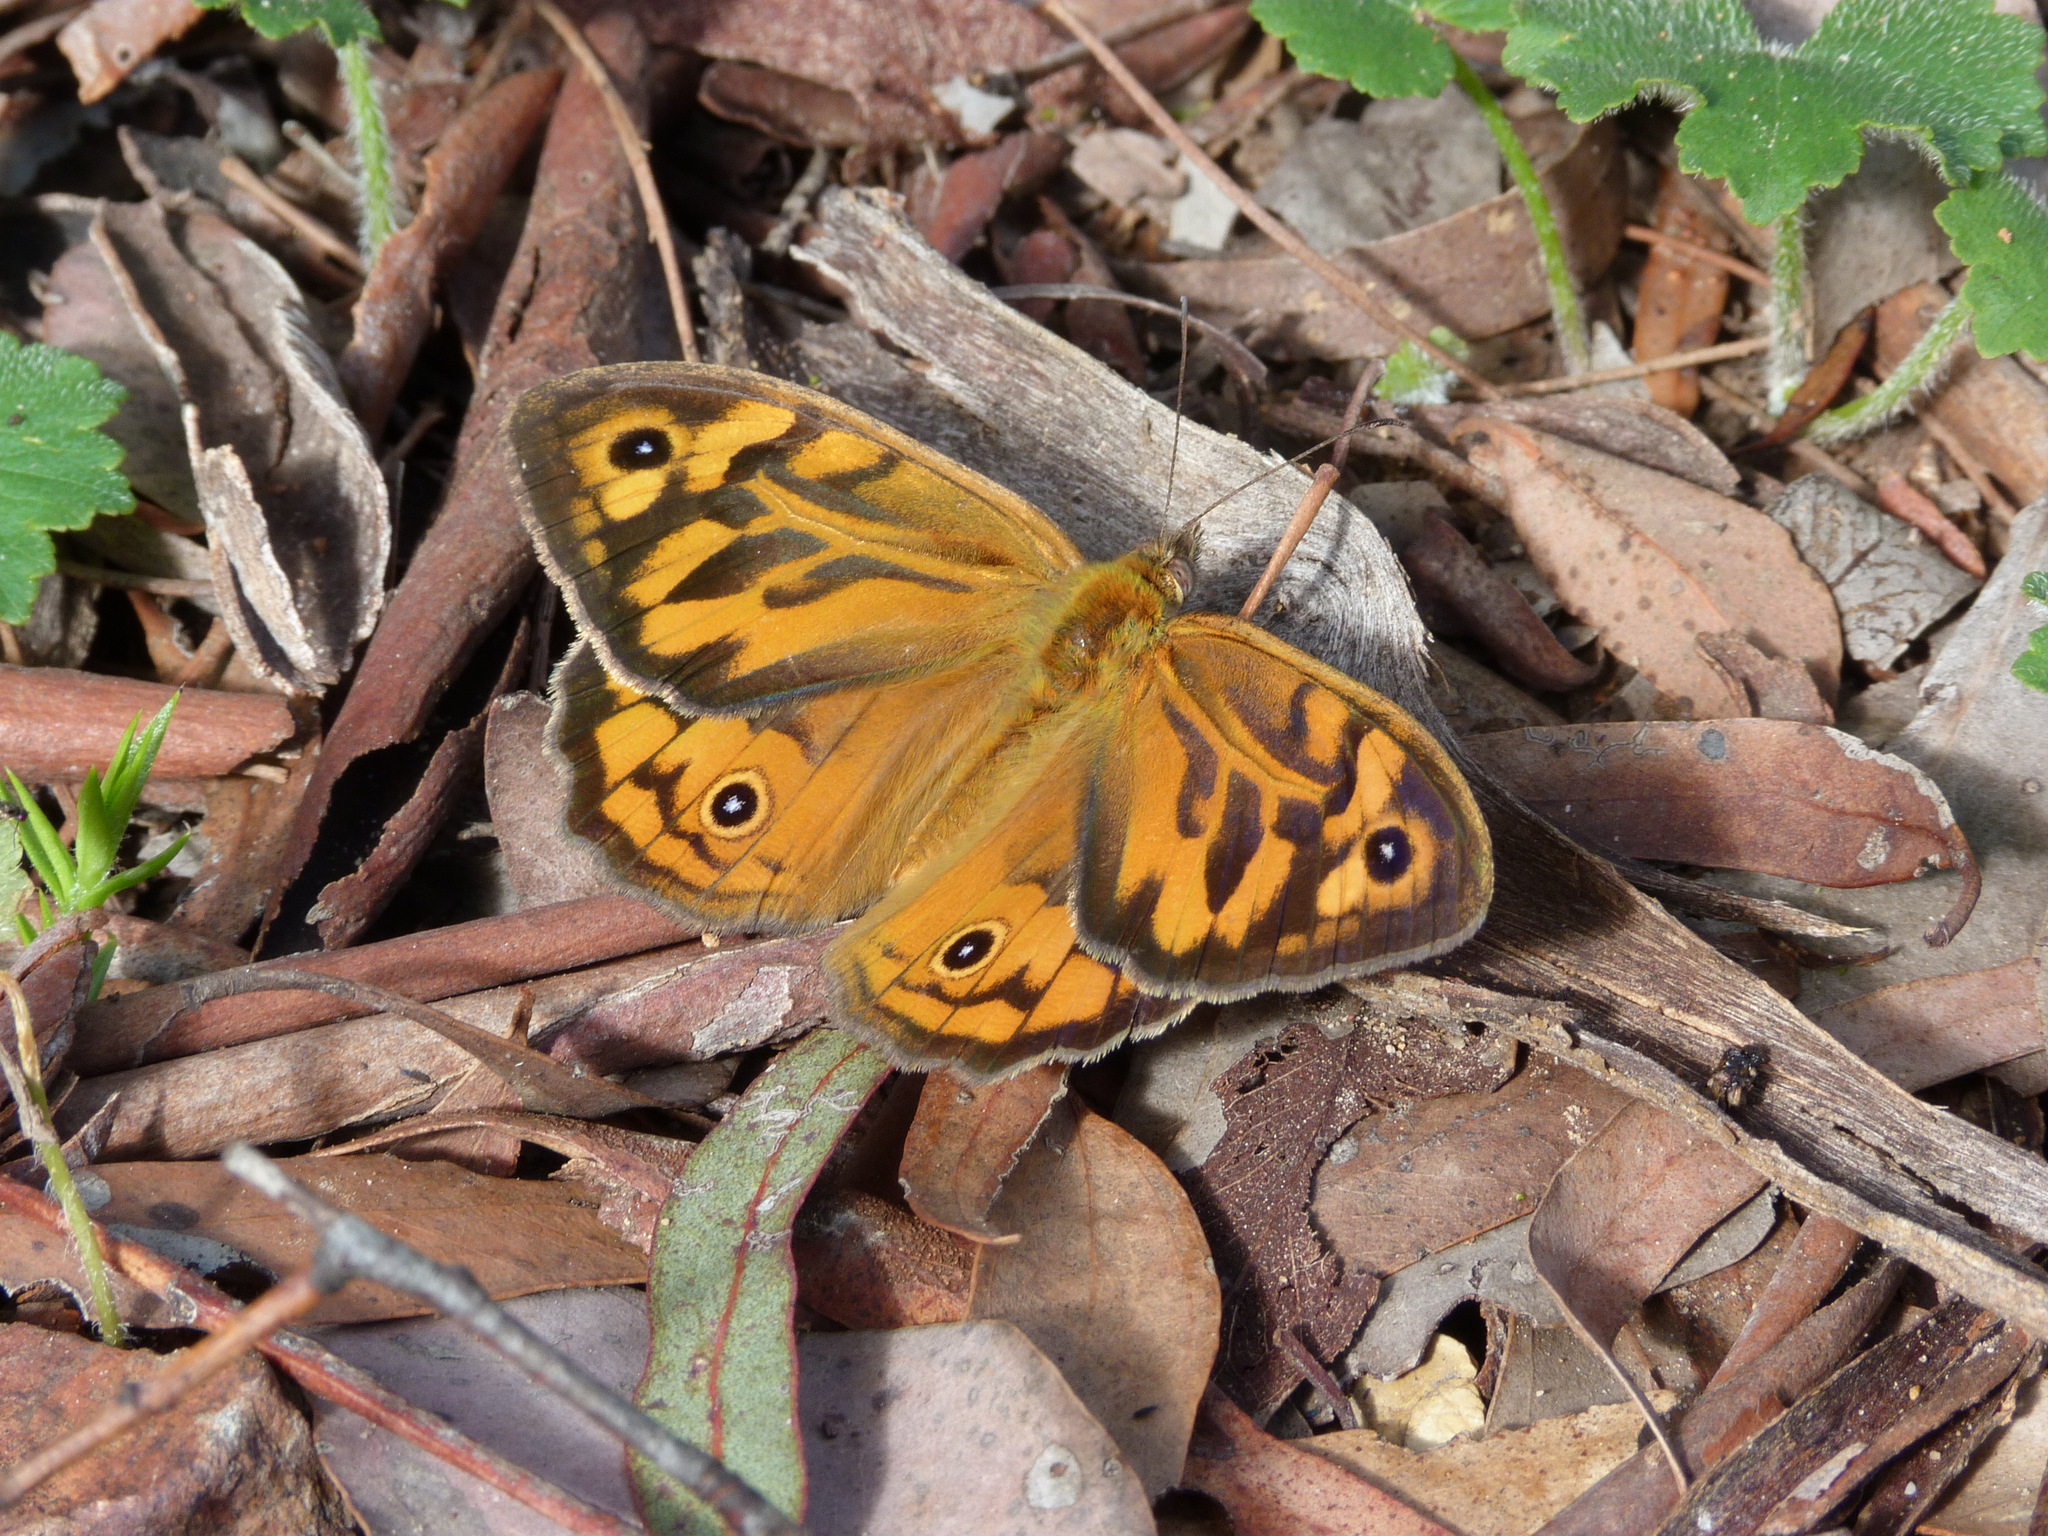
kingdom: Animalia
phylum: Arthropoda
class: Insecta
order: Lepidoptera
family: Nymphalidae
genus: Heteronympha
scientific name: Heteronympha merope
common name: Common brown
